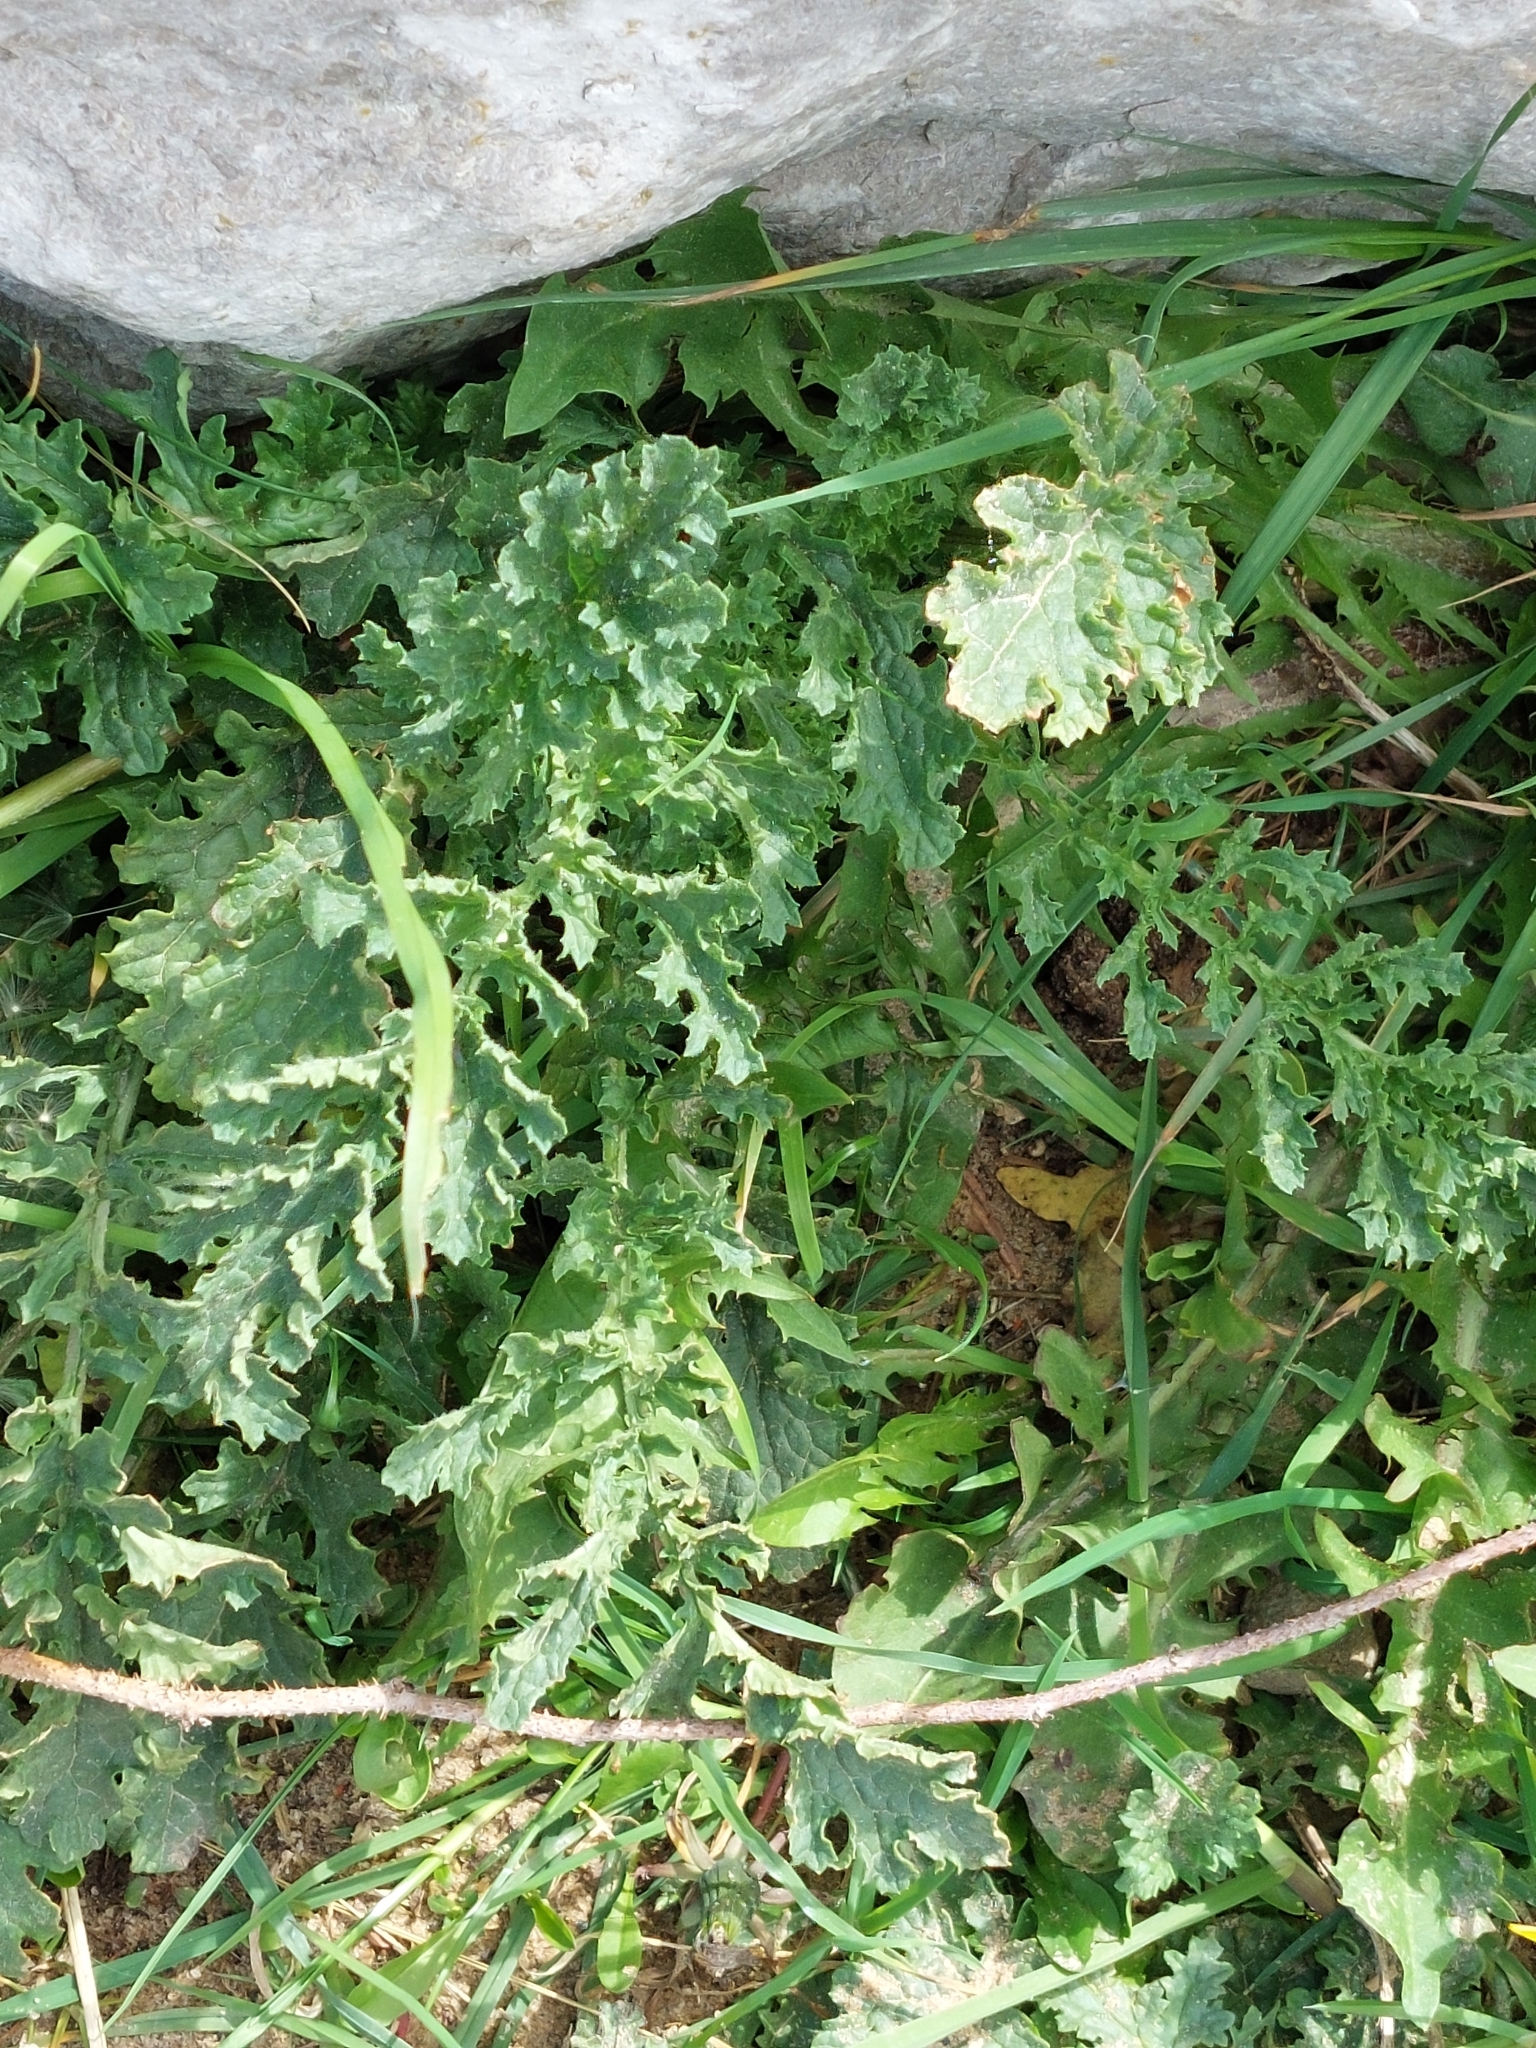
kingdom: Plantae
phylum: Tracheophyta
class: Magnoliopsida
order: Asterales
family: Asteraceae
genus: Jacobaea
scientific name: Jacobaea vulgaris
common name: Stinking willie
